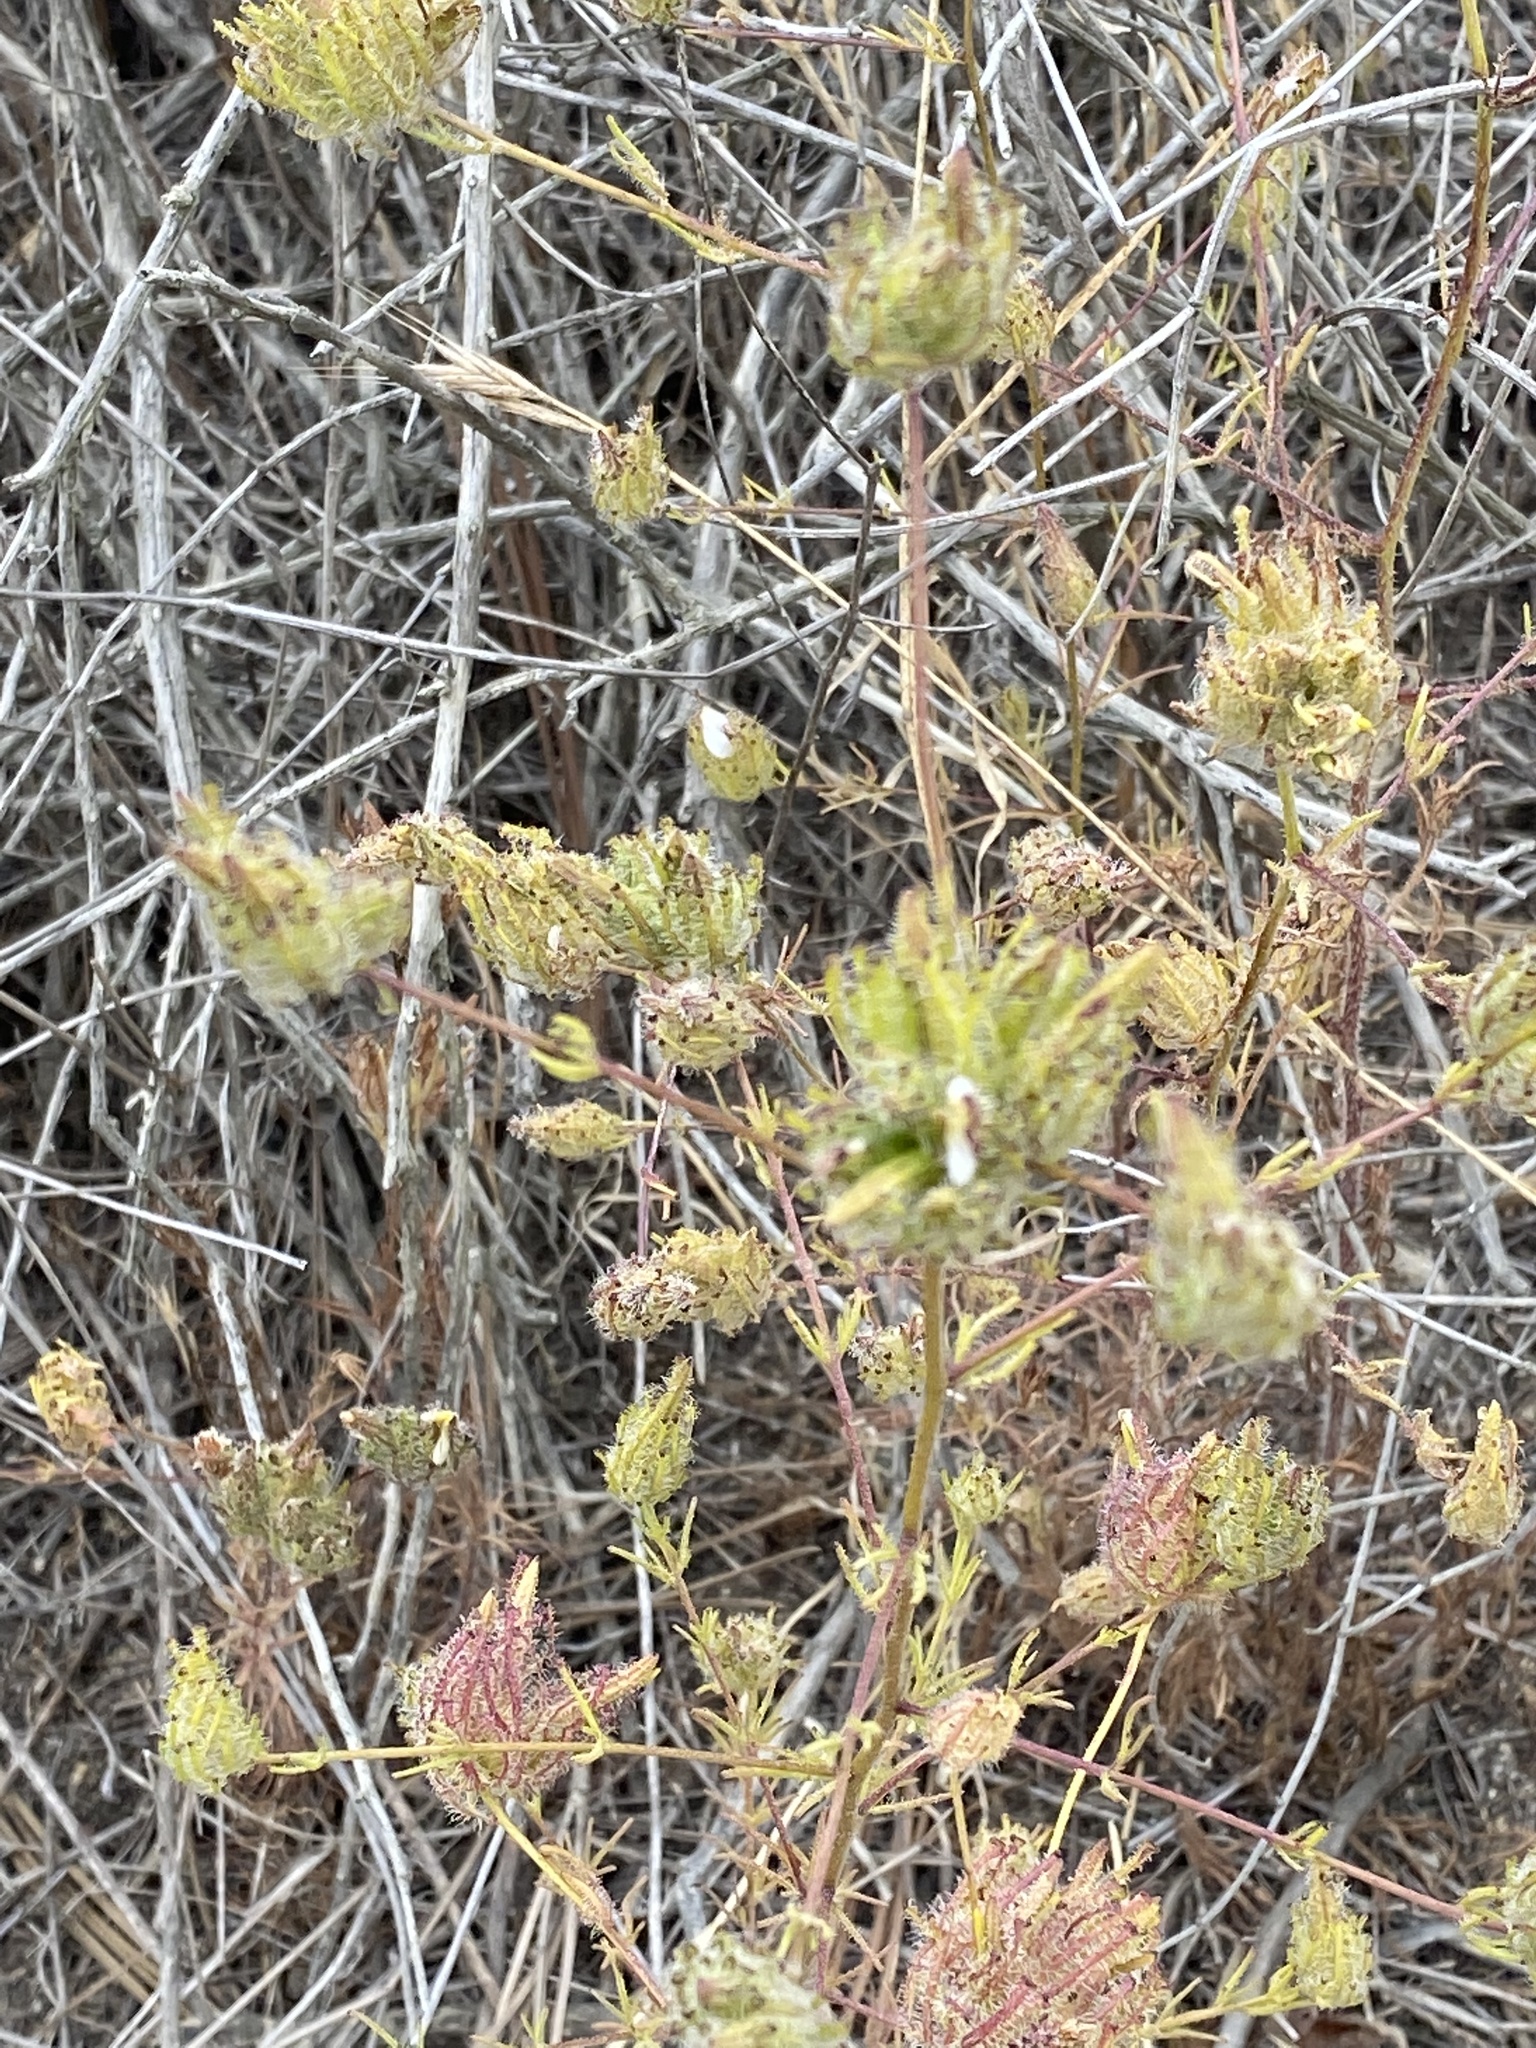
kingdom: Plantae
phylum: Tracheophyta
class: Magnoliopsida
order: Lamiales
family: Orobanchaceae
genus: Cordylanthus
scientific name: Cordylanthus rigidus
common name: Stiff-branch bird's-beak
